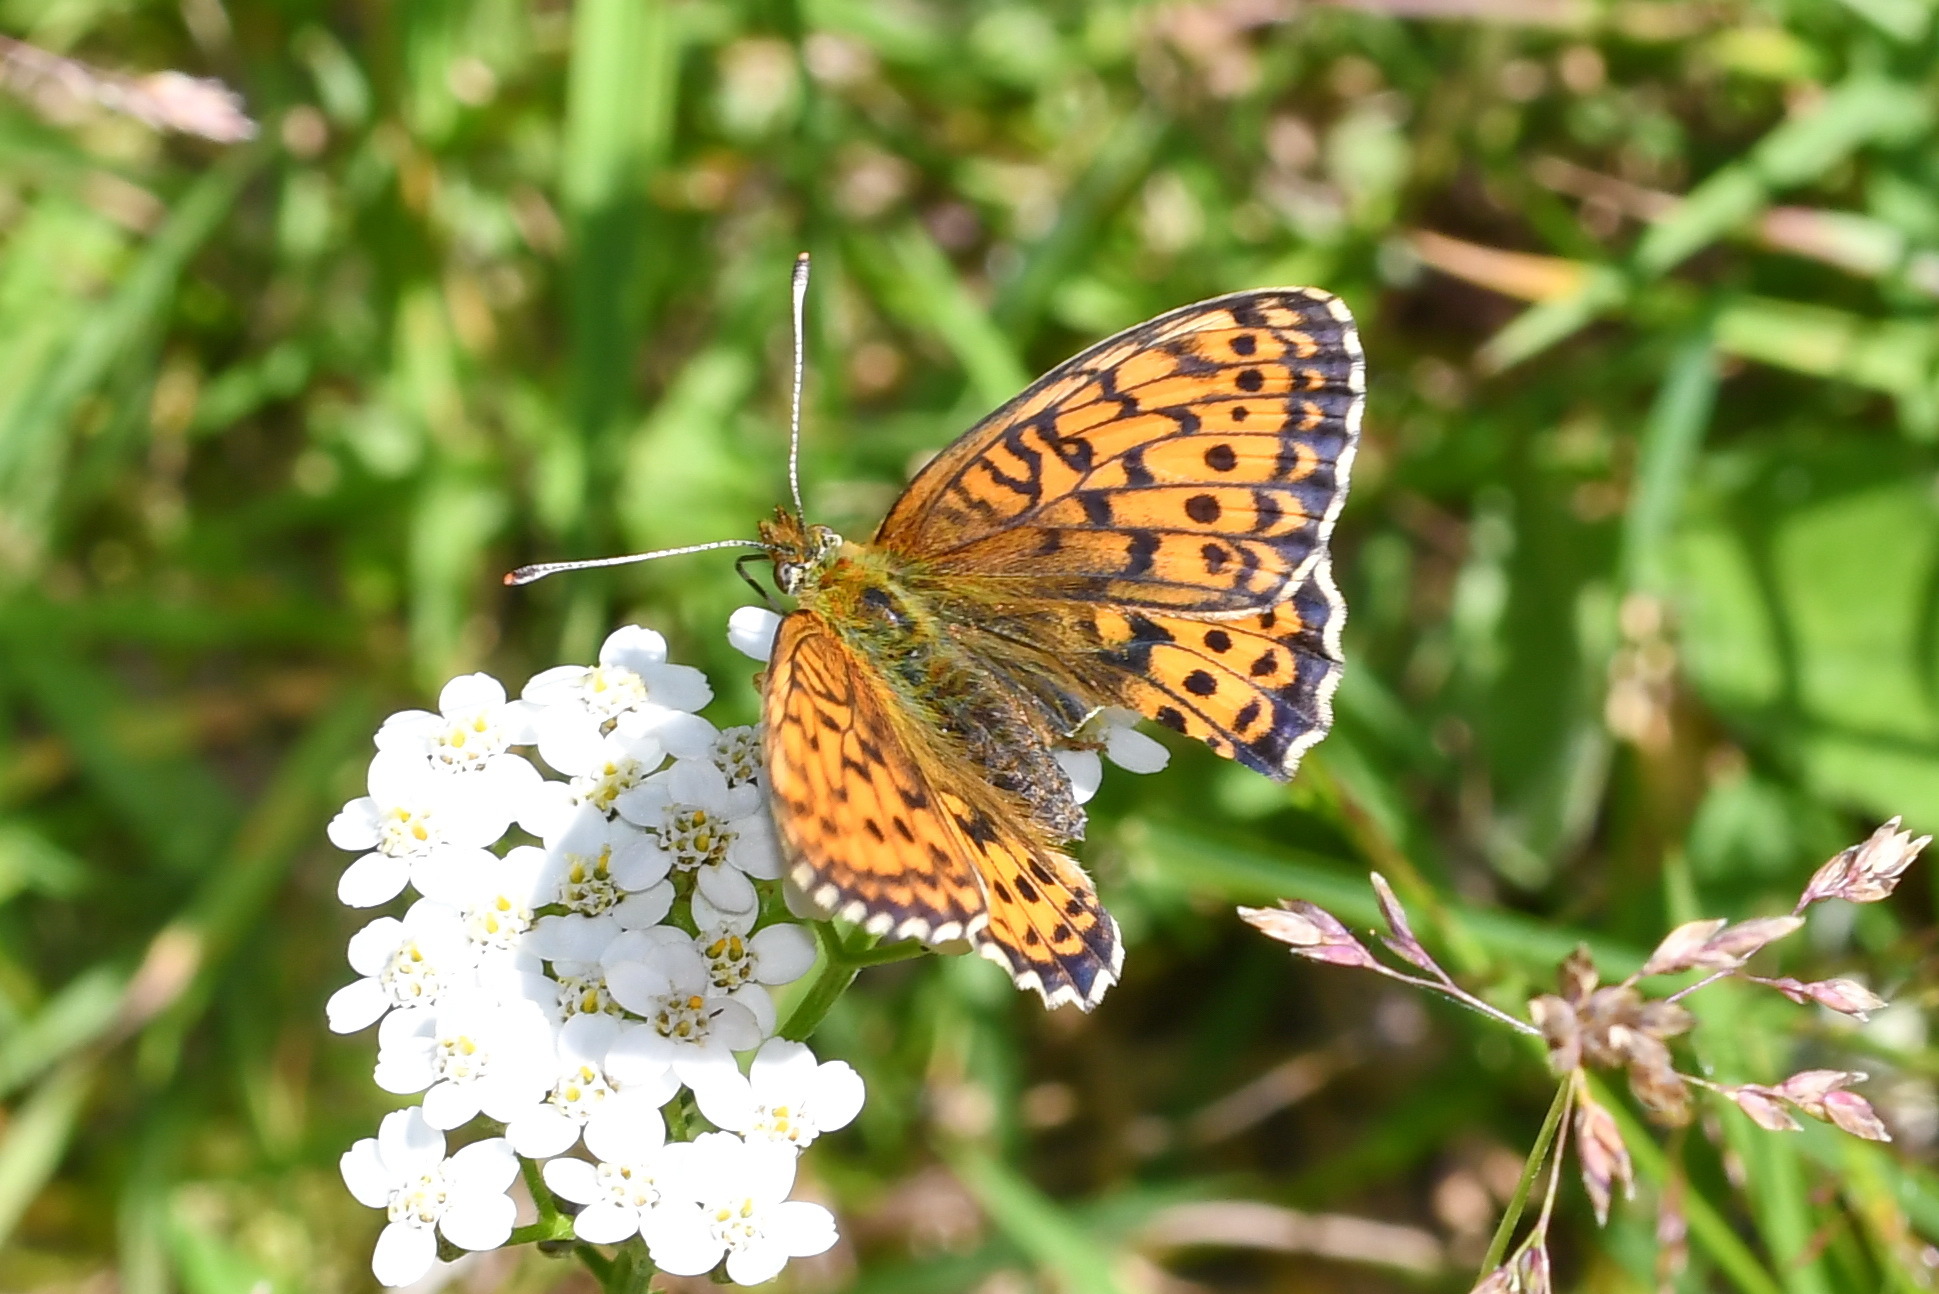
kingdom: Animalia
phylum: Arthropoda
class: Insecta
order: Lepidoptera
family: Nymphalidae
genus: Brenthis
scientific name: Brenthis ino
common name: Lesser marbled fritillary
